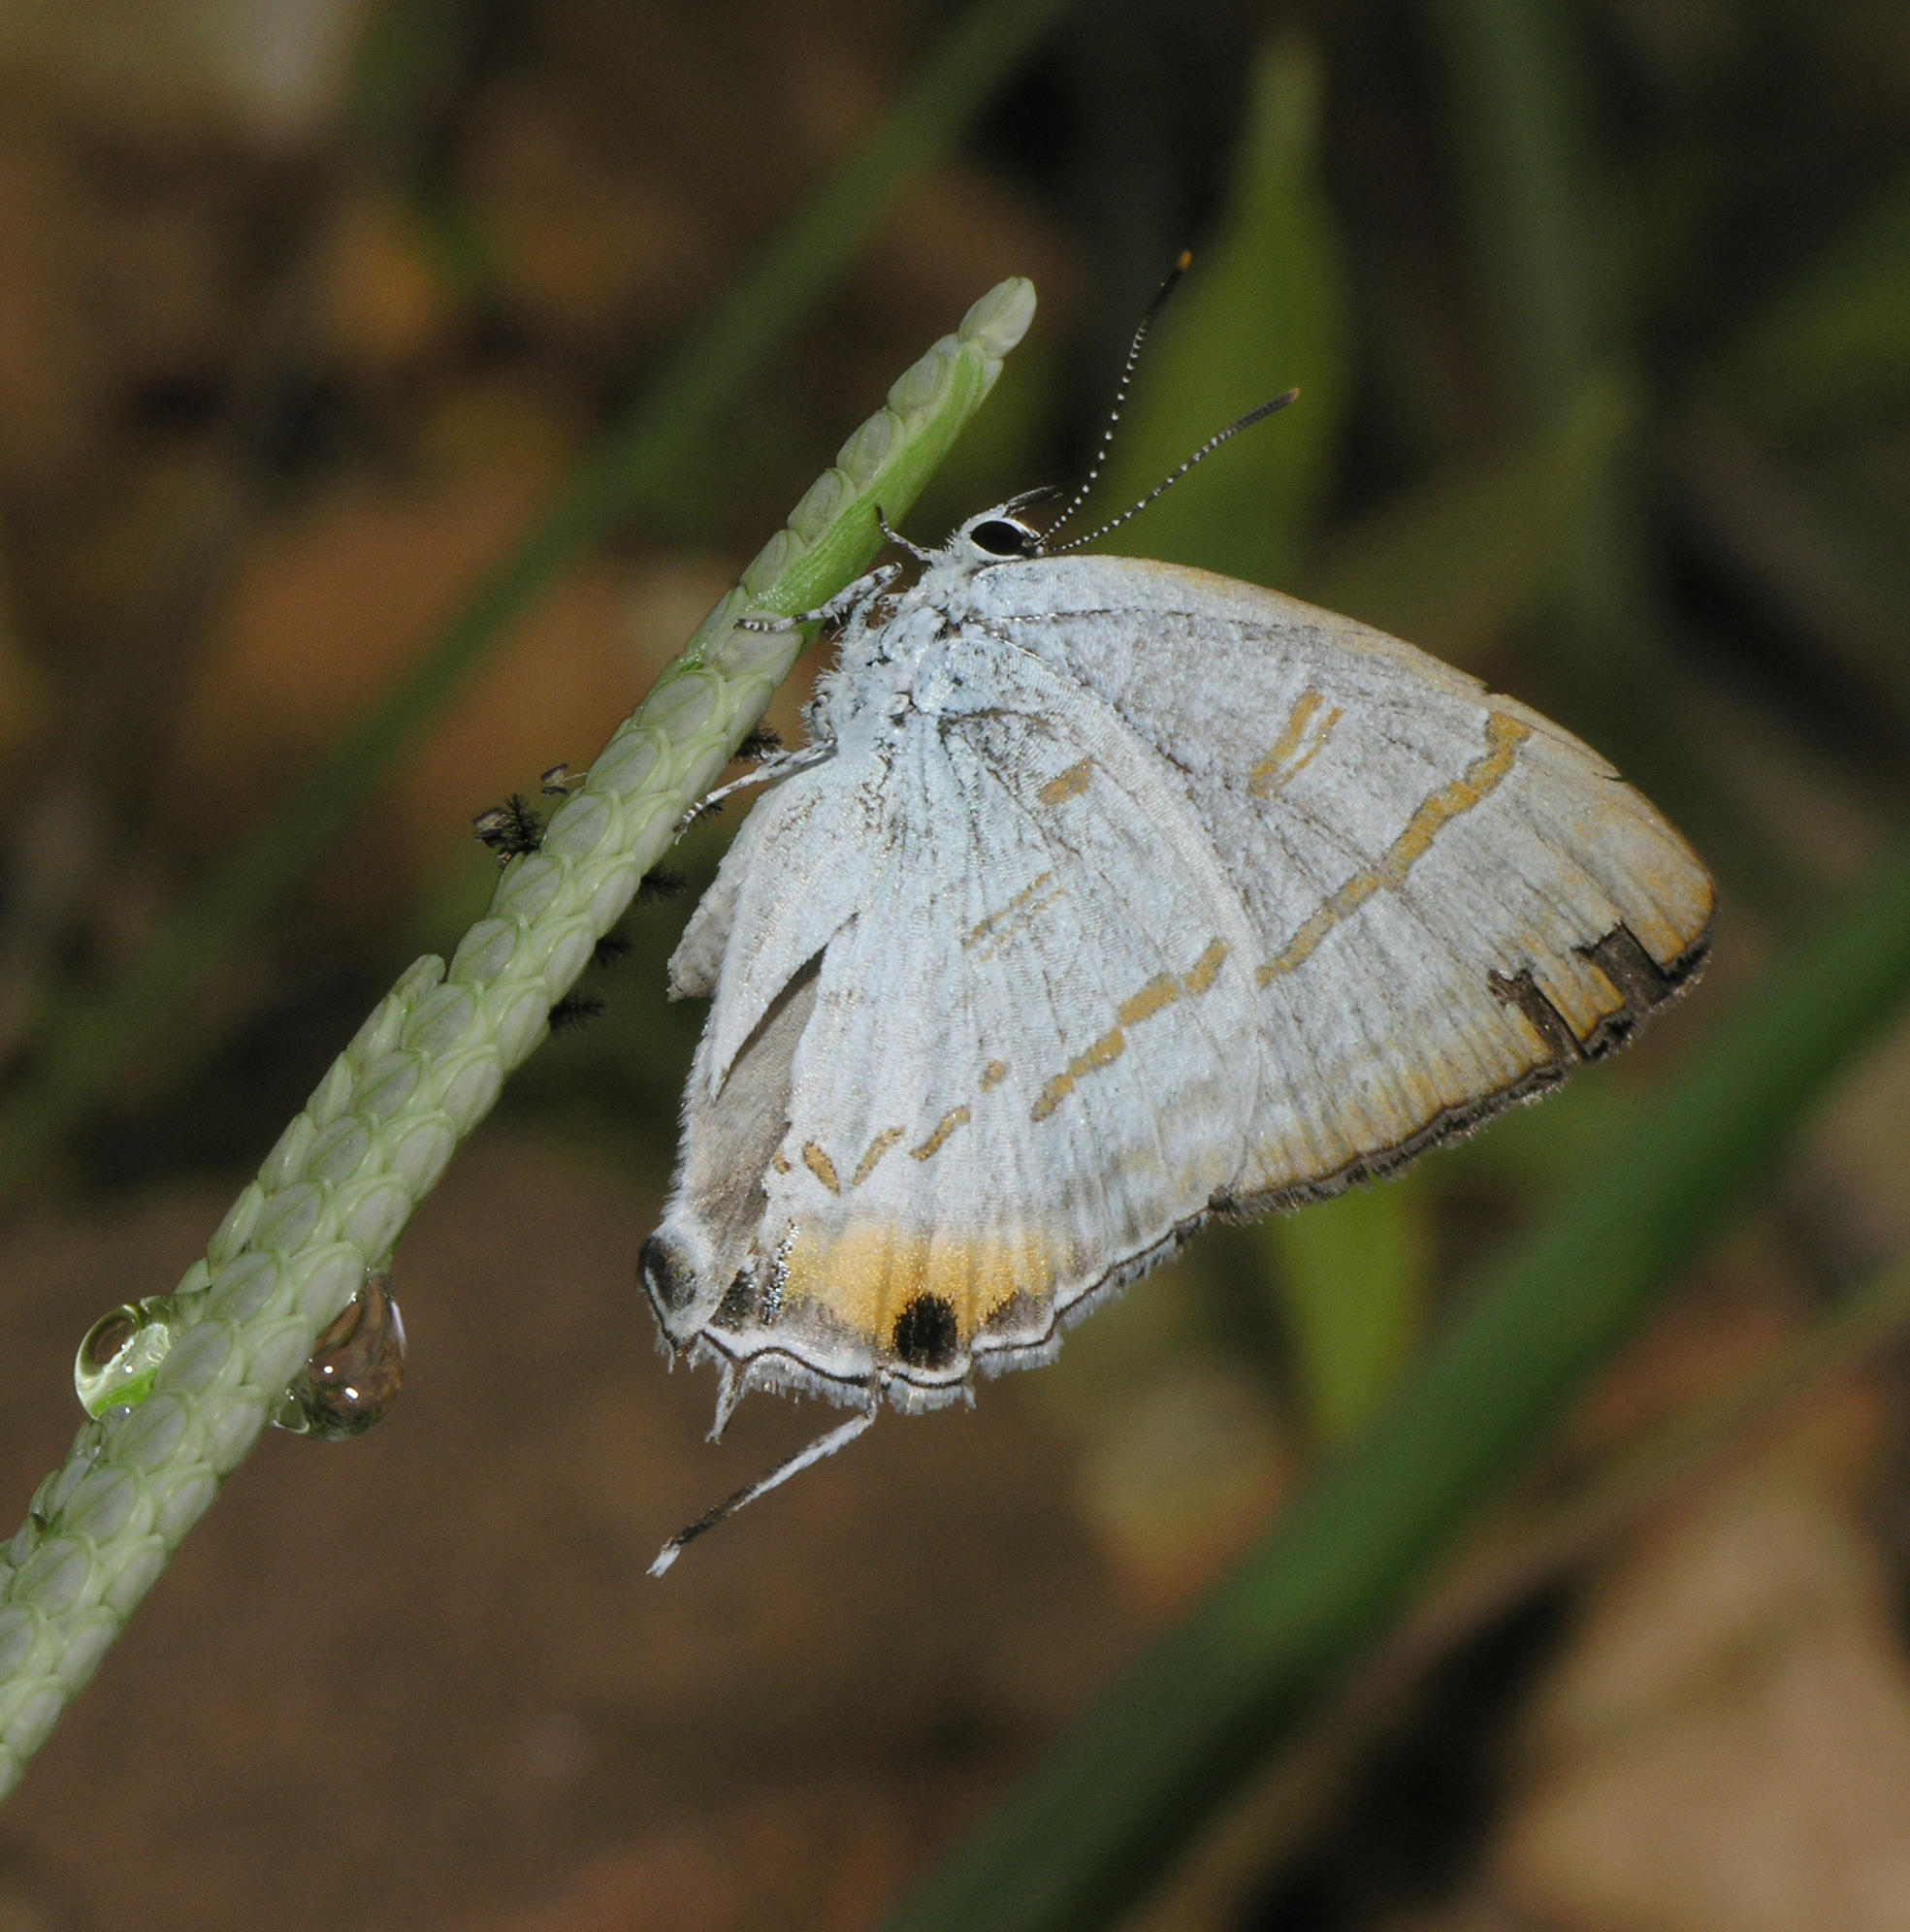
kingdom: Animalia
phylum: Arthropoda
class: Insecta
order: Lepidoptera
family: Lycaenidae
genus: Hypolycaena
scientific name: Hypolycaena thecloides
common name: Dark tit
